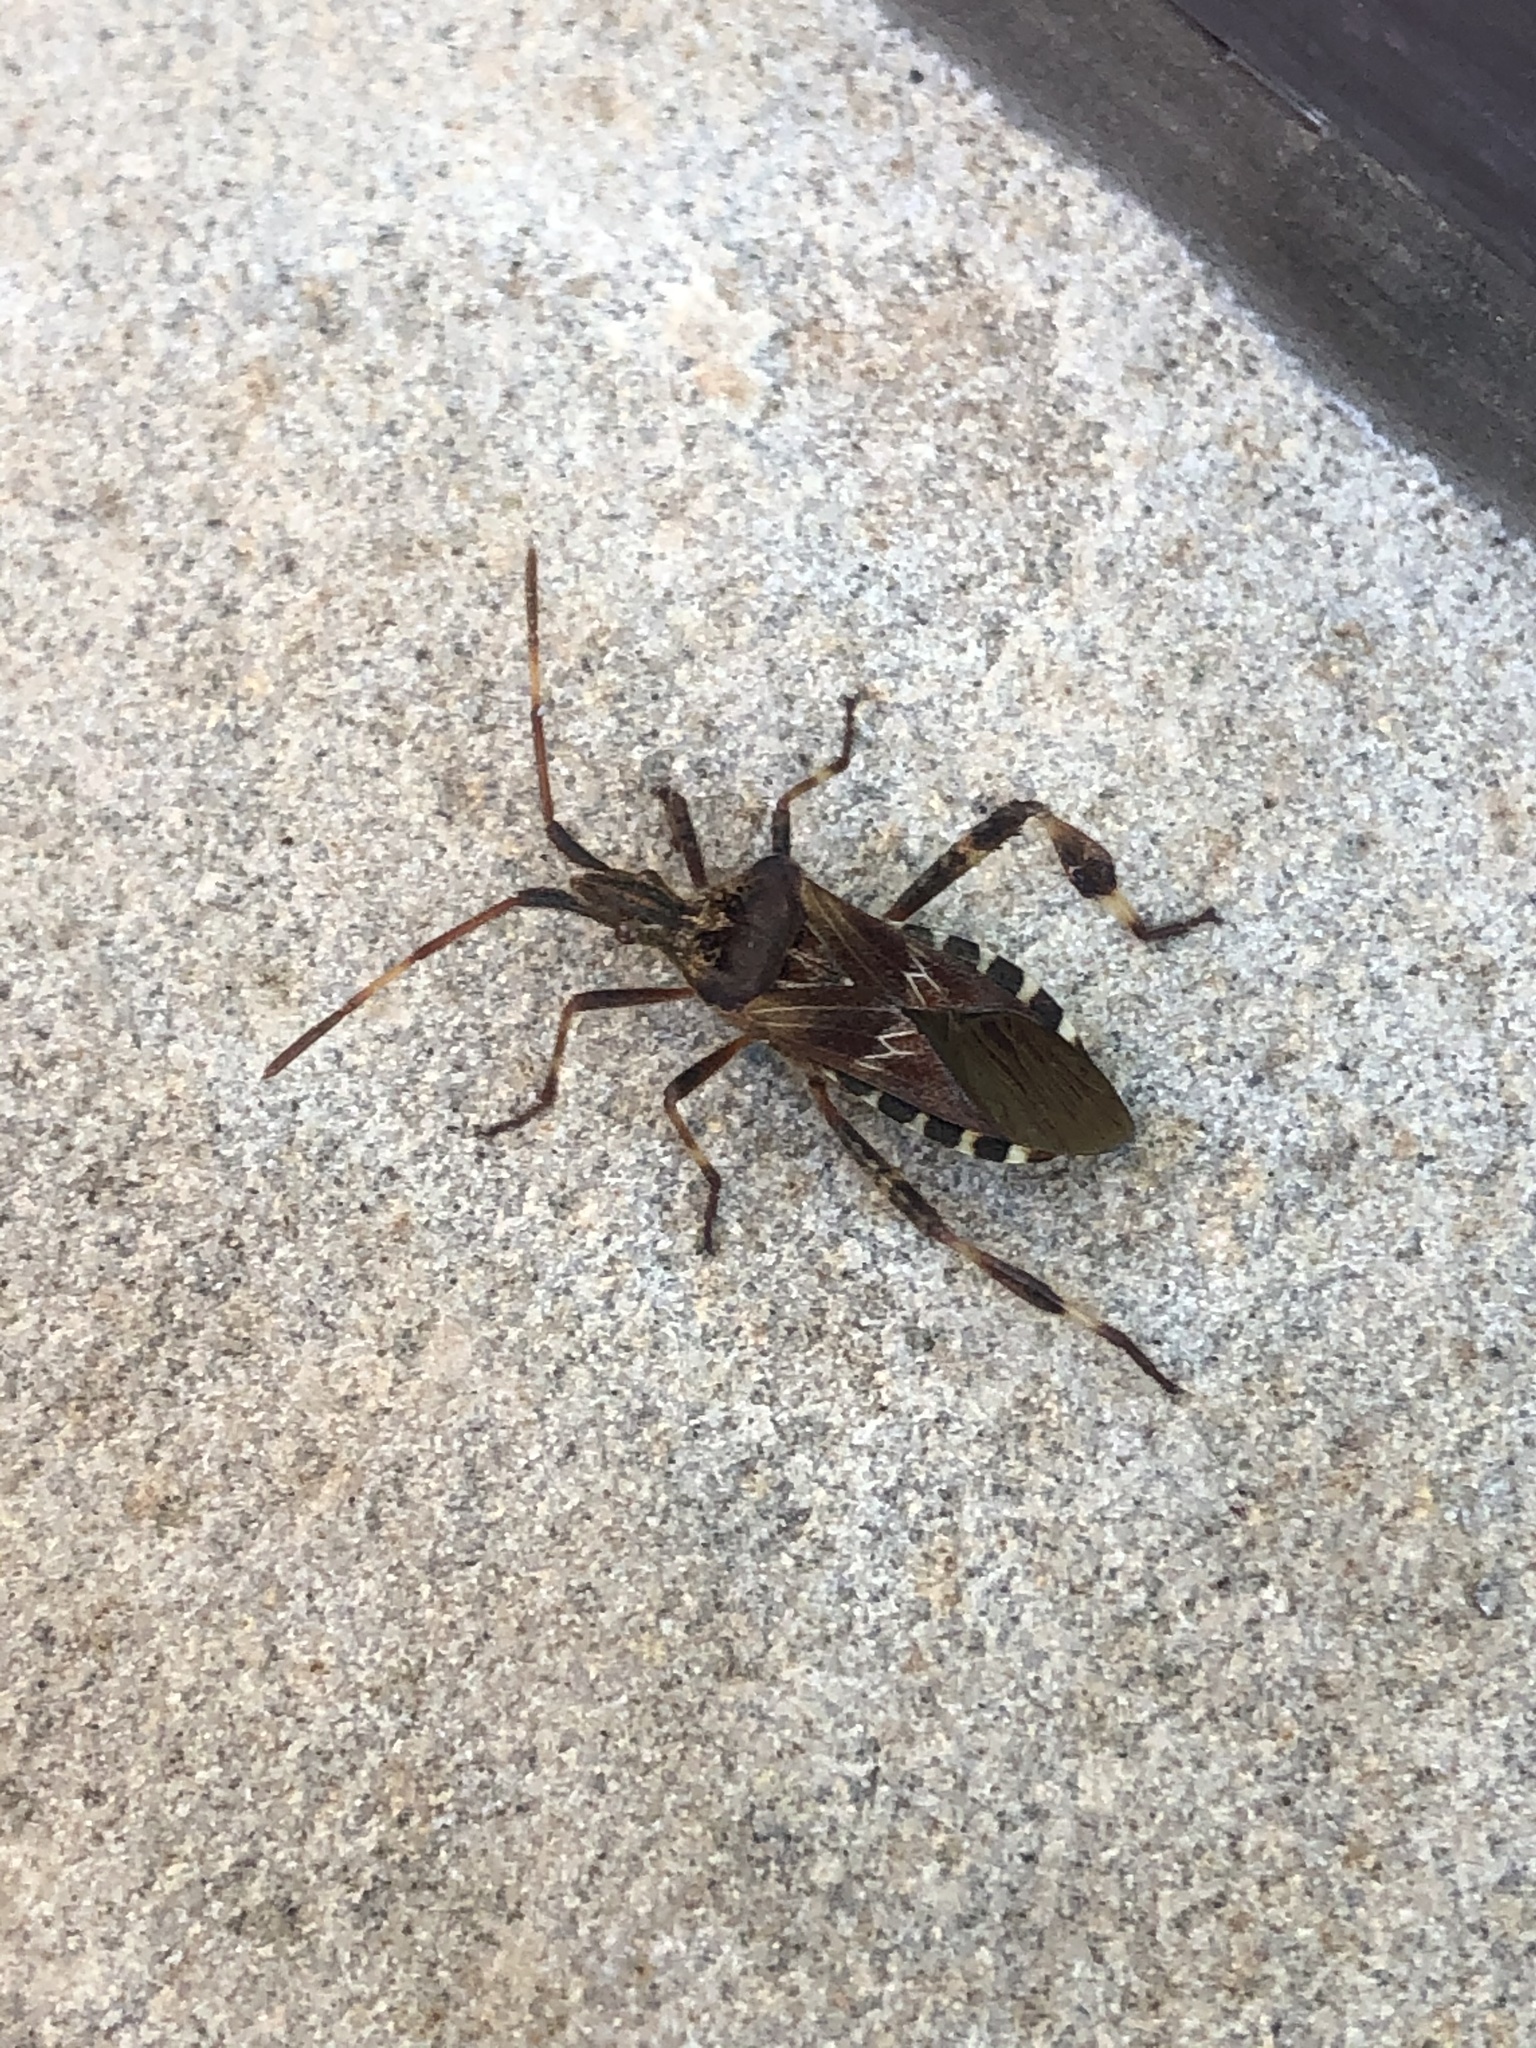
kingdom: Animalia
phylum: Arthropoda
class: Insecta
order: Hemiptera
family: Coreidae
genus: Leptoglossus
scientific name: Leptoglossus occidentalis
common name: Western conifer-seed bug
